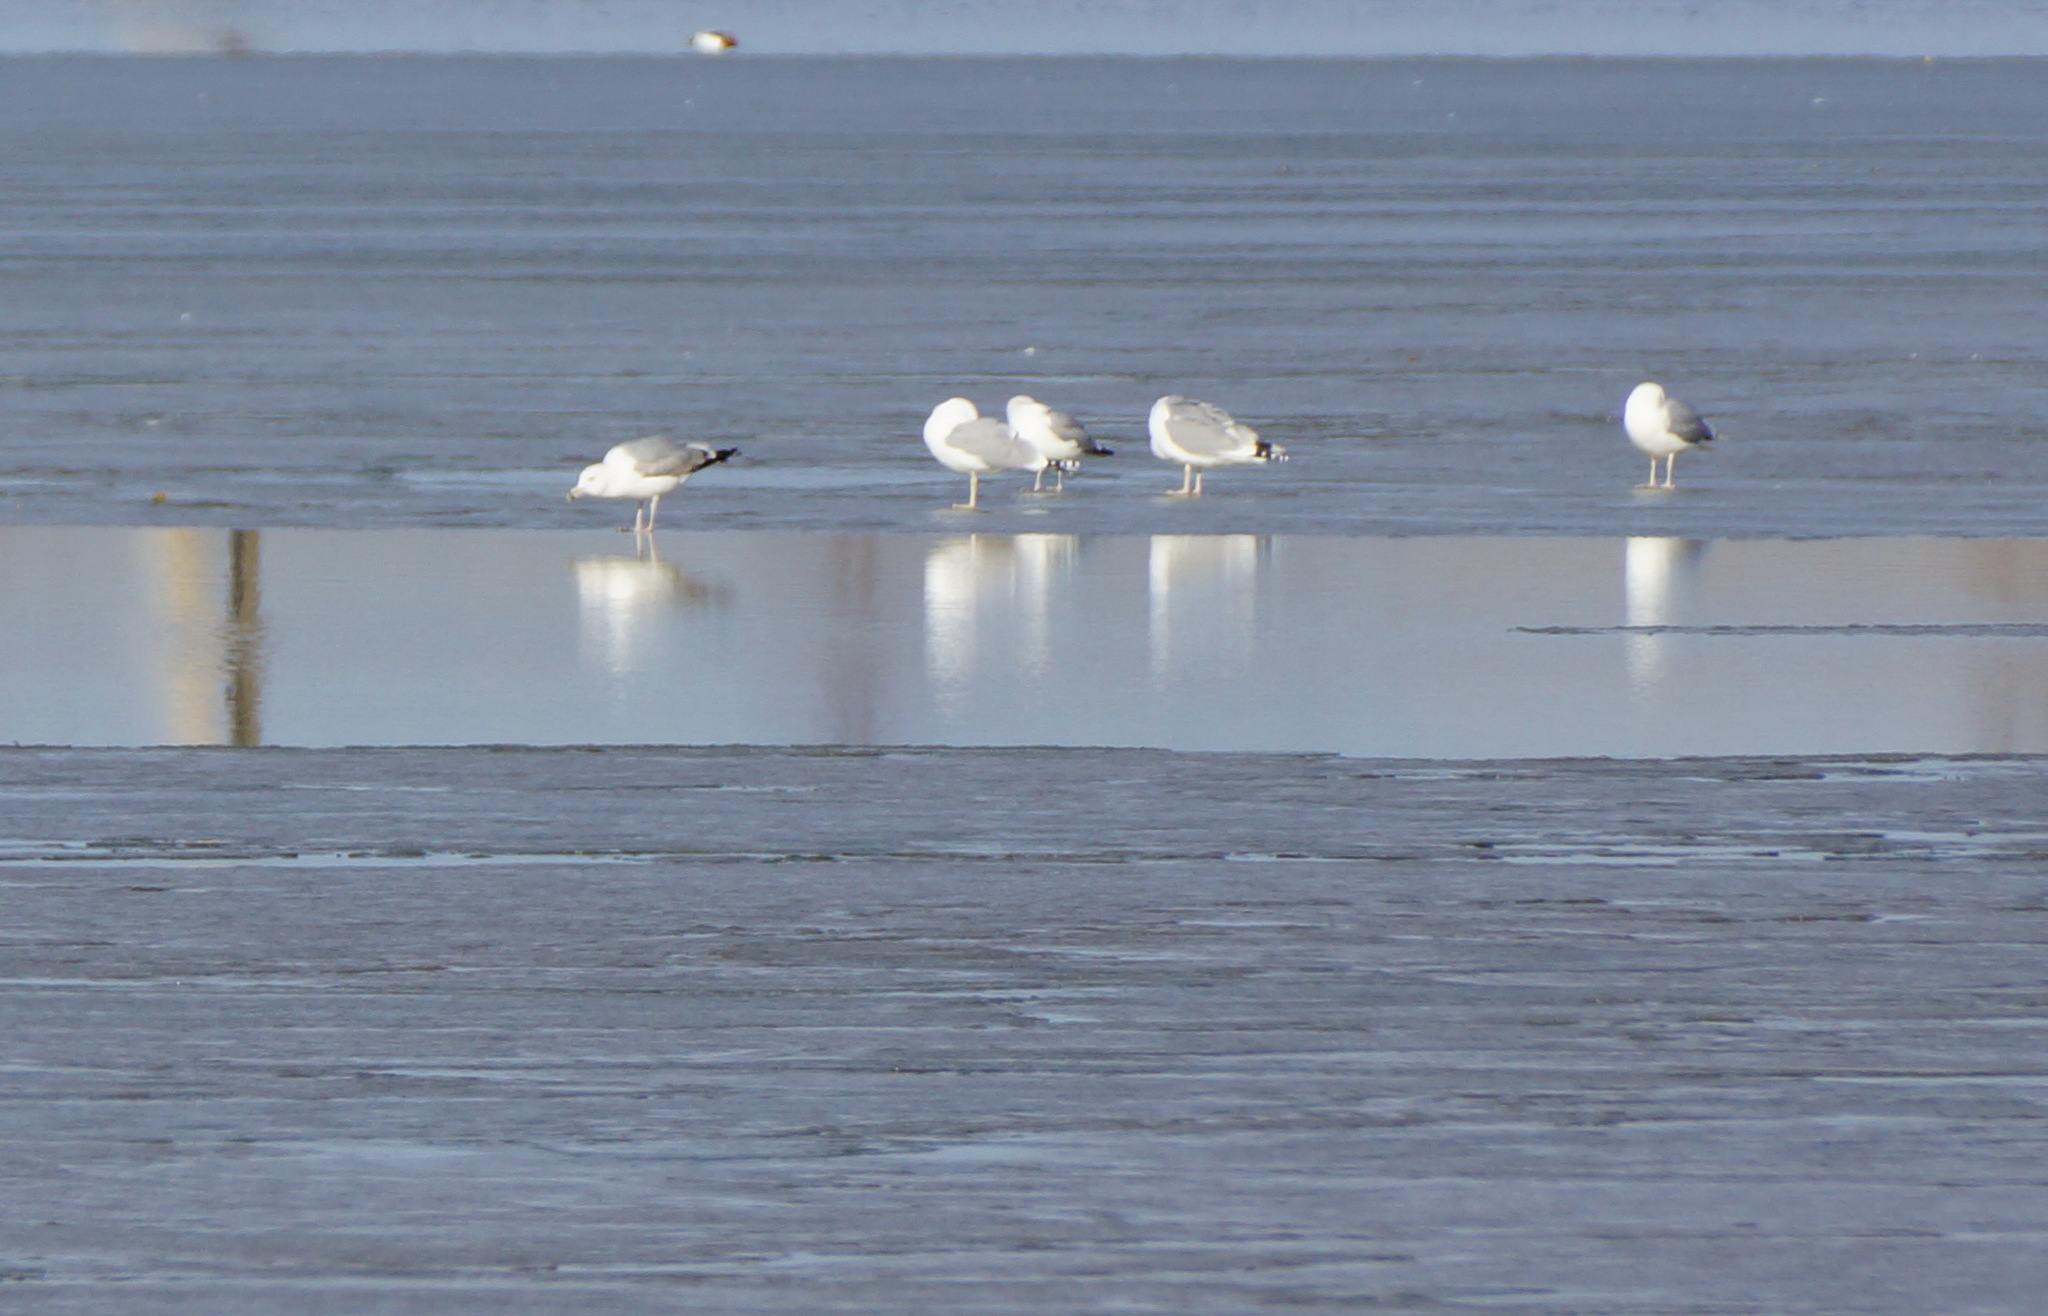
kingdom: Animalia
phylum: Chordata
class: Aves
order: Charadriiformes
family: Laridae
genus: Larus
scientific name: Larus cachinnans
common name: Caspian gull
